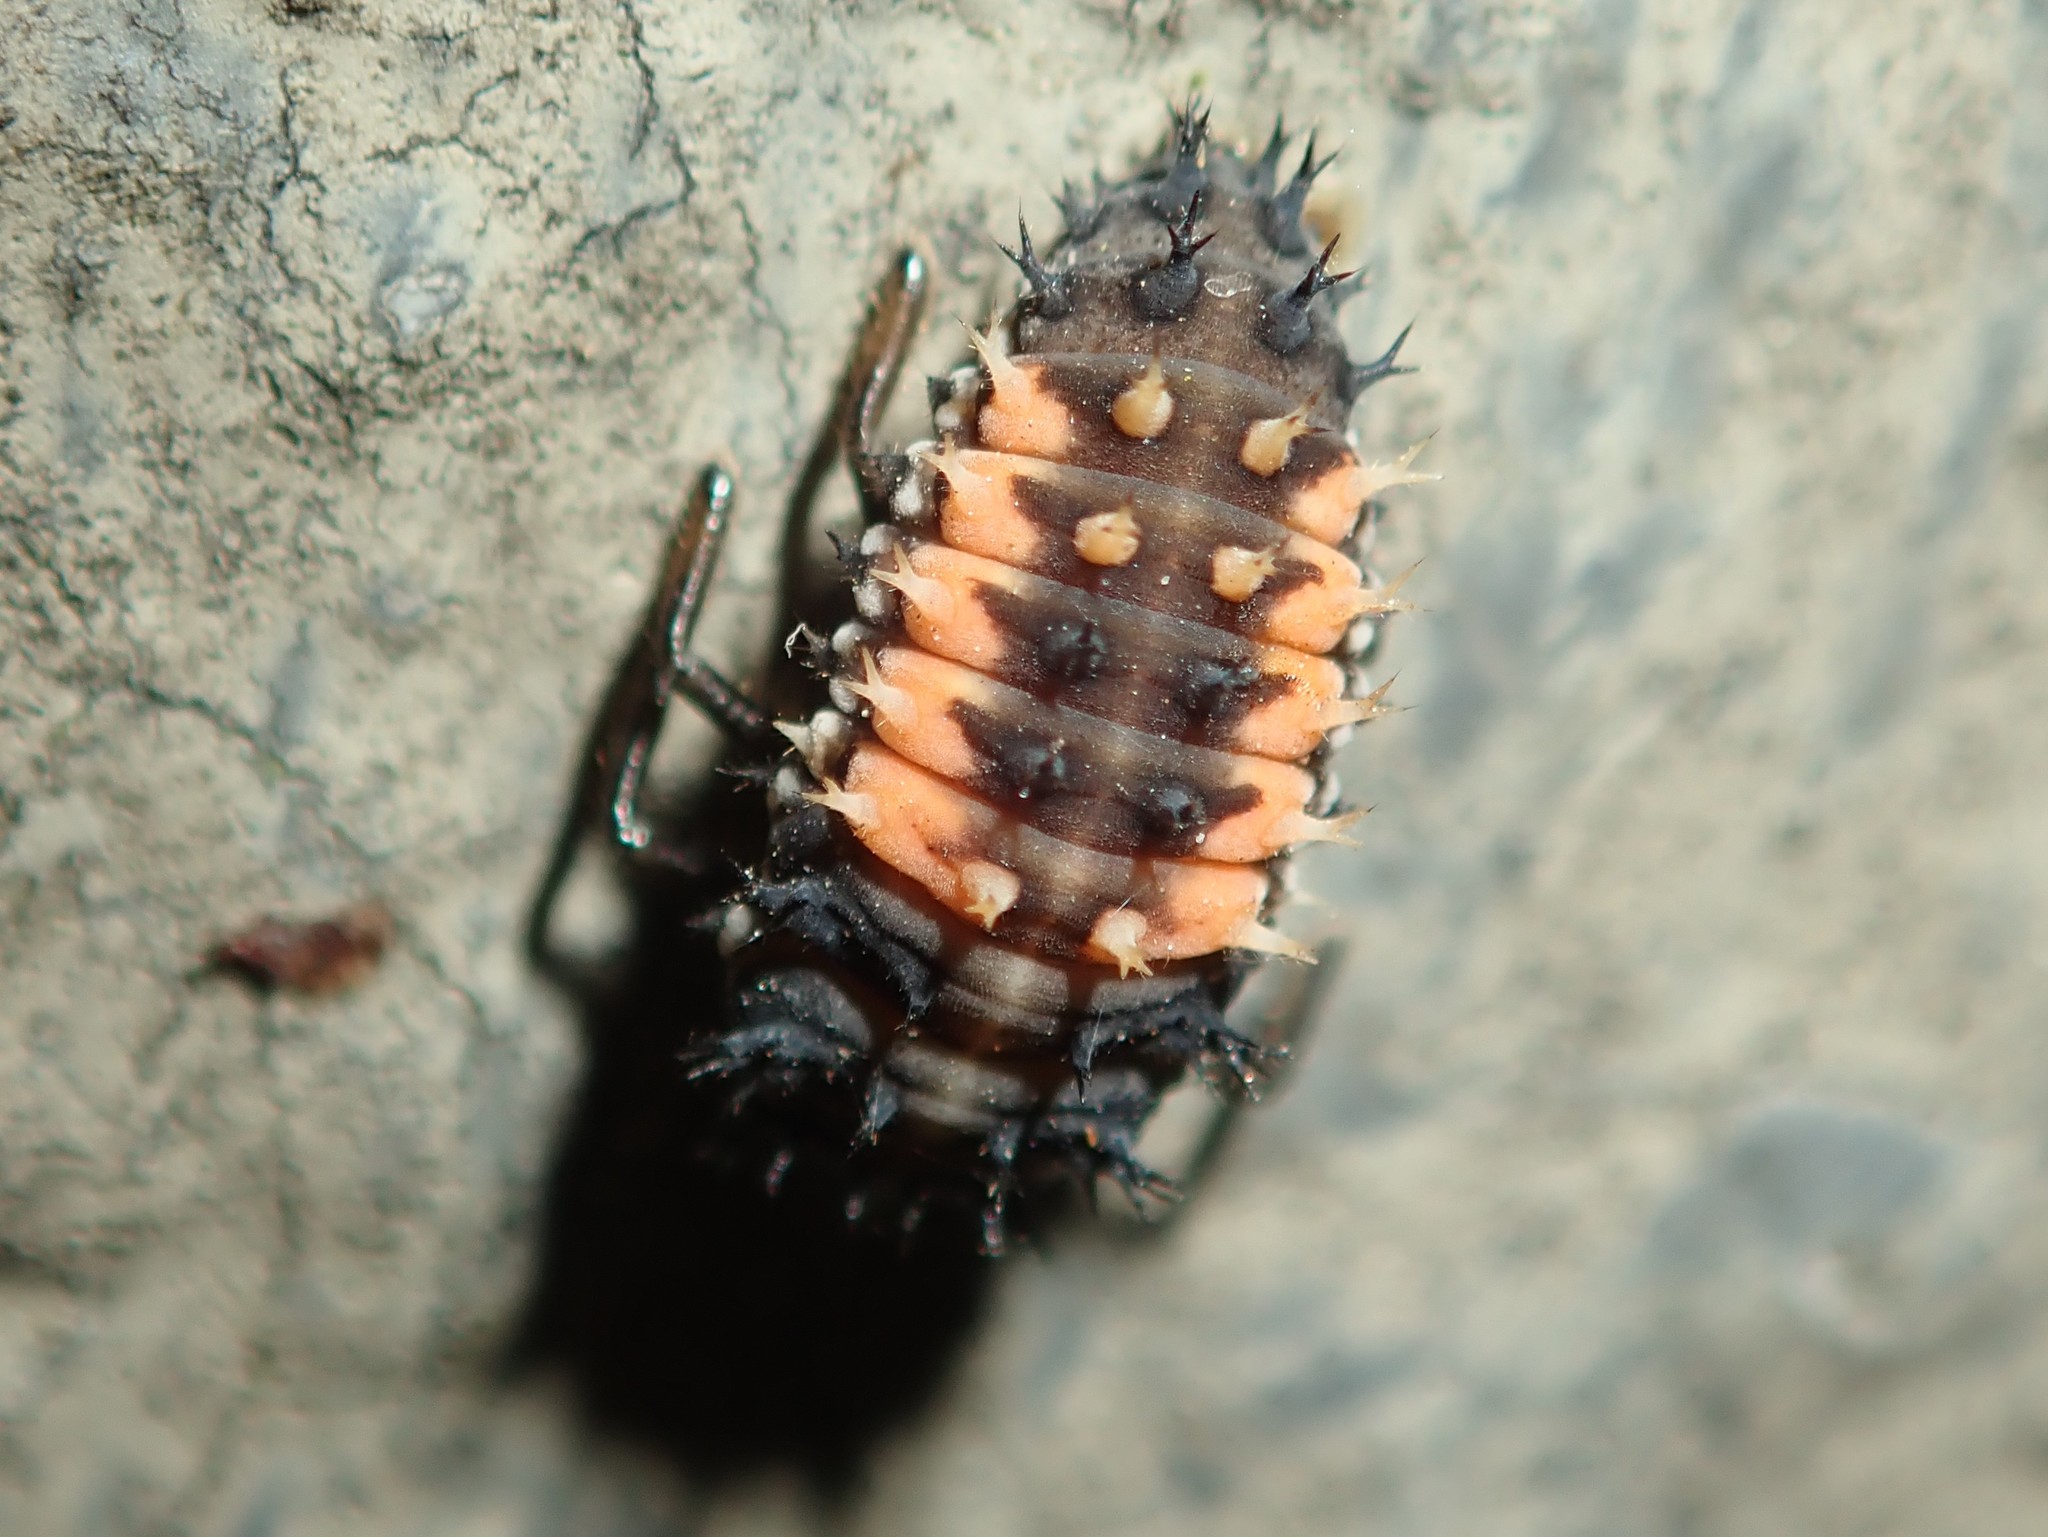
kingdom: Animalia
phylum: Arthropoda
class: Insecta
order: Coleoptera
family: Coccinellidae
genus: Harmonia
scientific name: Harmonia axyridis
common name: Harlequin ladybird
